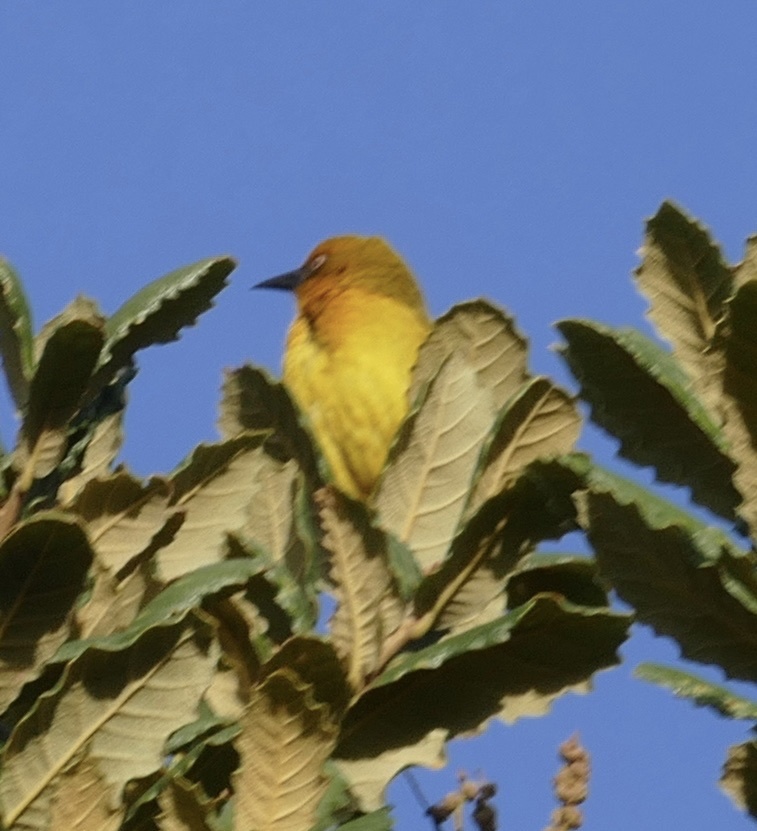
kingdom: Animalia
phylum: Chordata
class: Aves
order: Passeriformes
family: Ploceidae
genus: Ploceus
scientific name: Ploceus capensis
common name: Cape weaver
